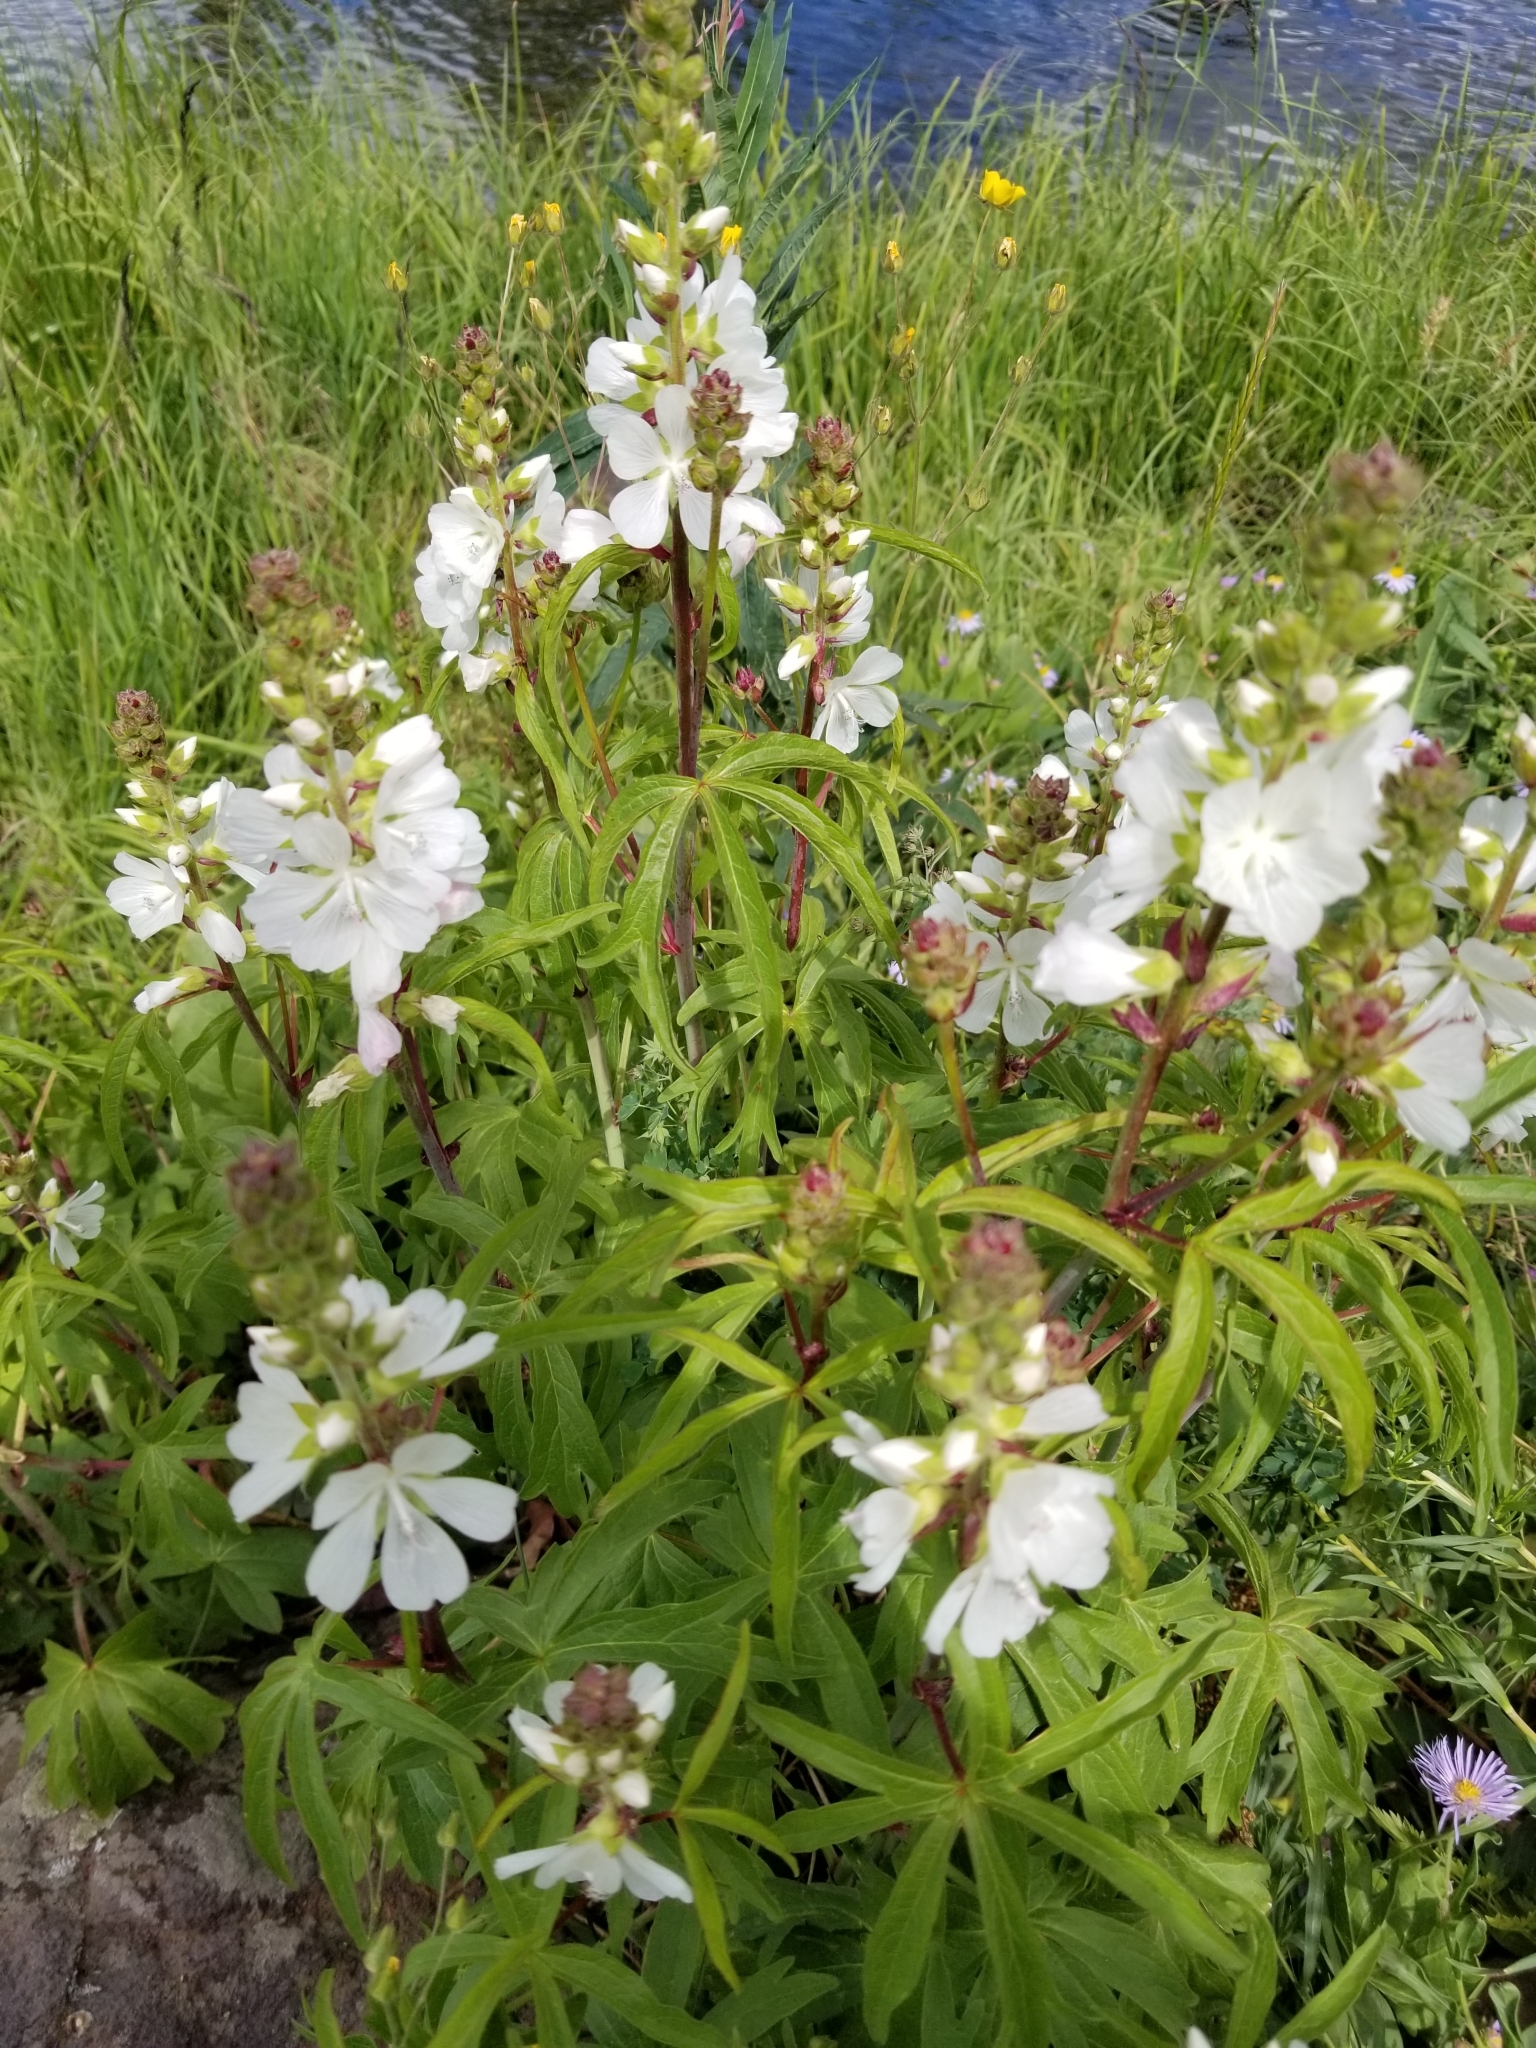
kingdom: Plantae
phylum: Tracheophyta
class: Magnoliopsida
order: Malvales
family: Malvaceae
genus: Sidalcea
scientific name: Sidalcea candida
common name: Prairie-mallow
